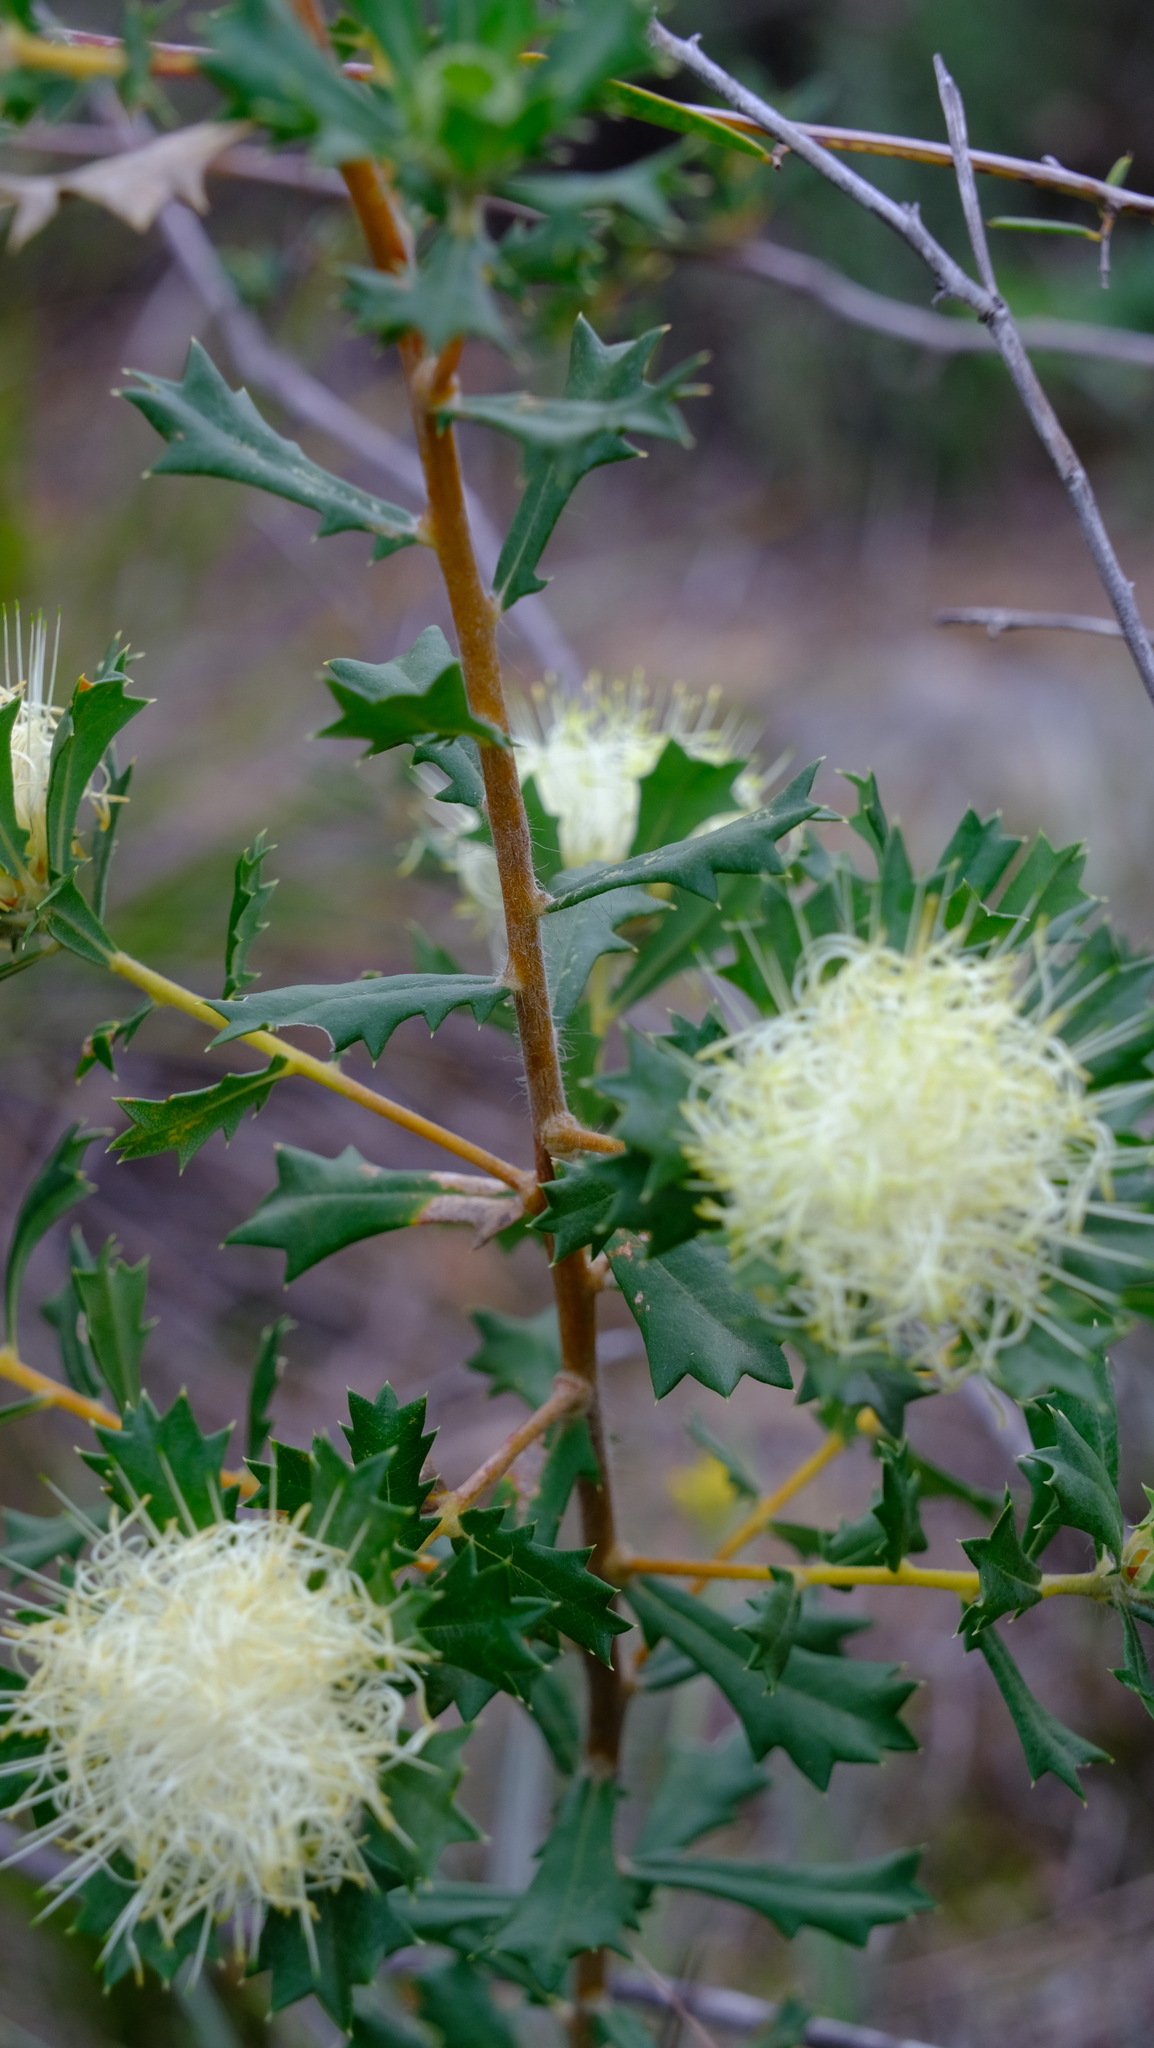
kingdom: Plantae
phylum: Tracheophyta
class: Magnoliopsida
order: Proteales
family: Proteaceae
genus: Banksia
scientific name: Banksia sessilis
